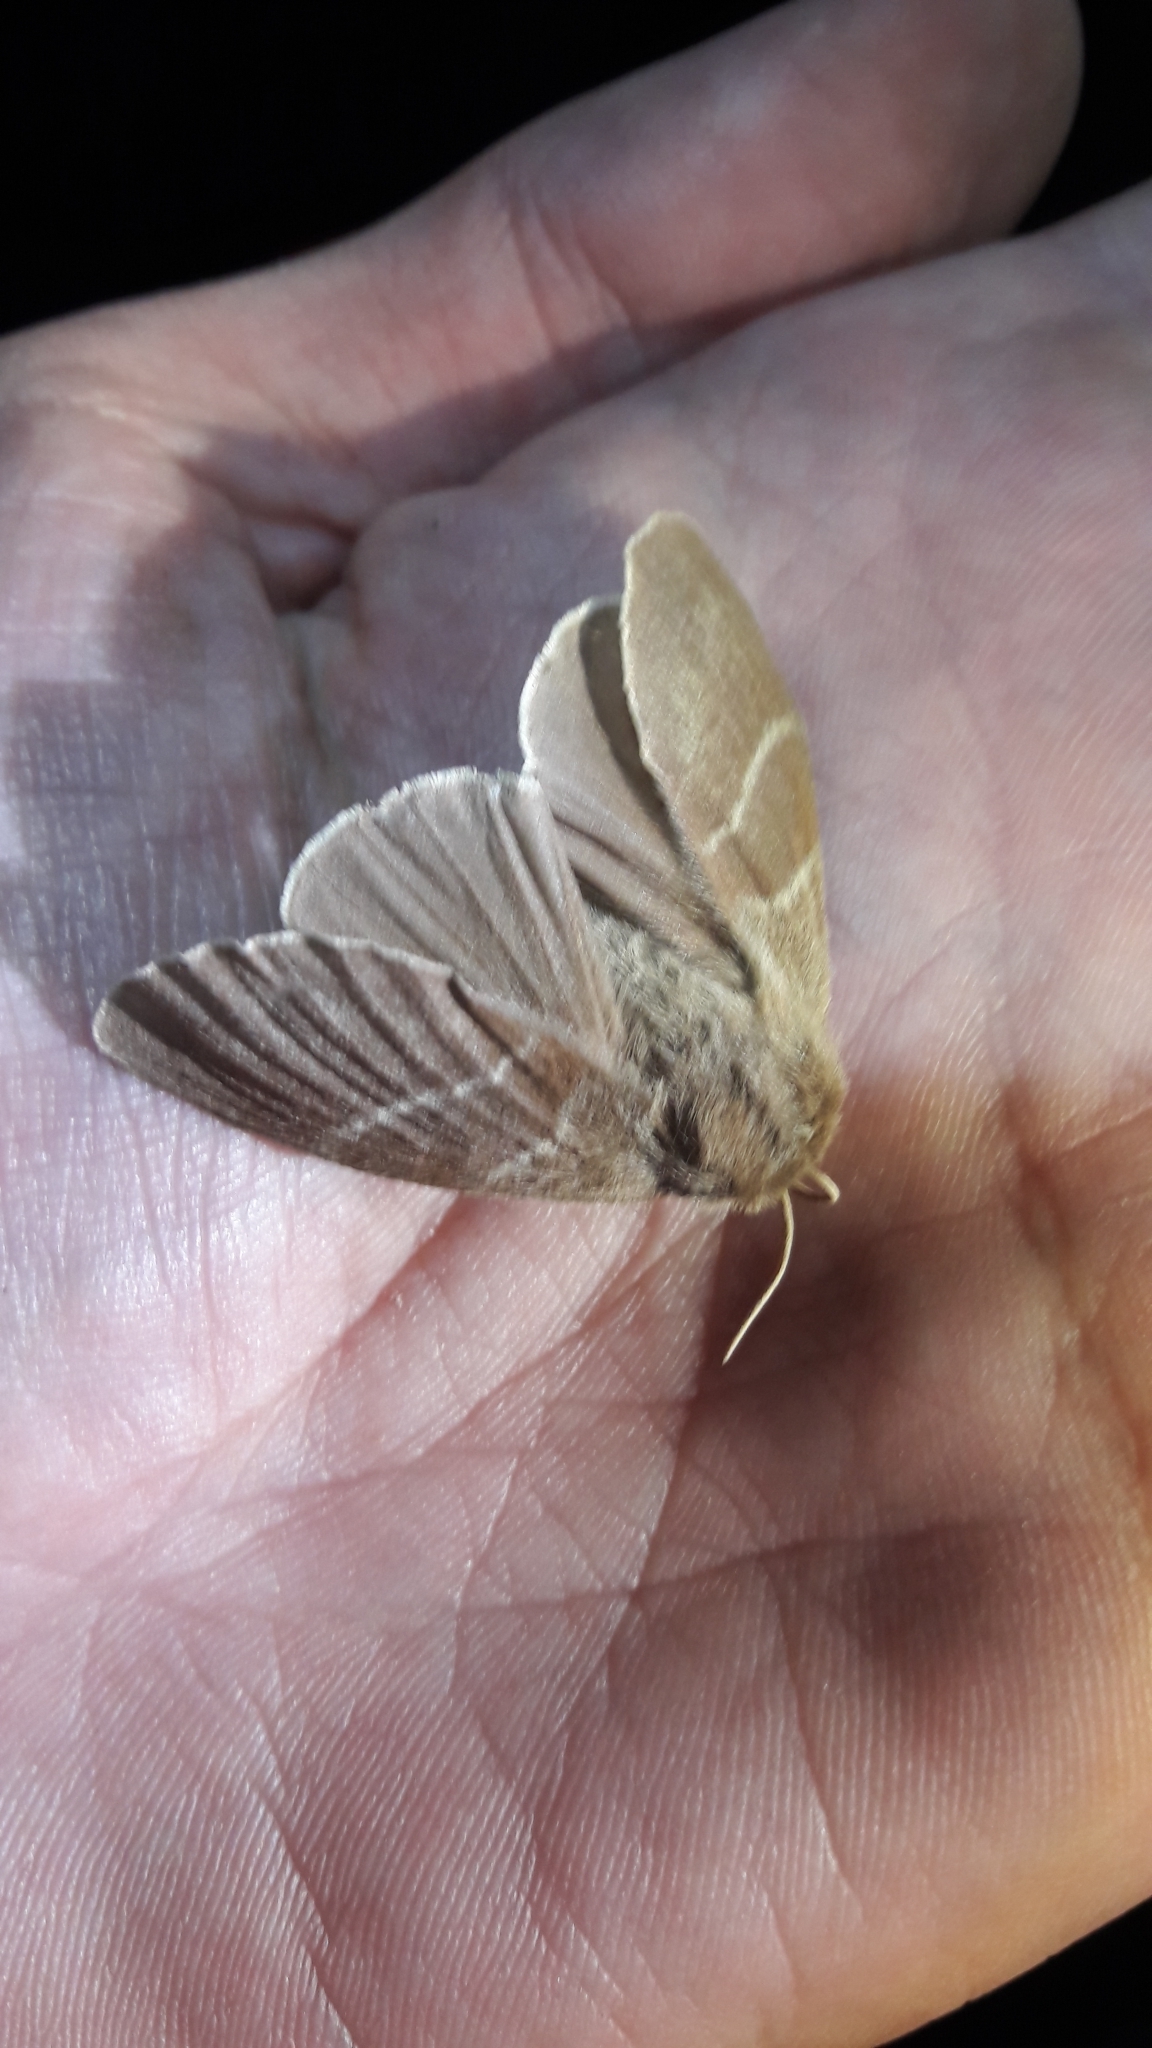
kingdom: Animalia
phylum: Arthropoda
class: Insecta
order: Lepidoptera
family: Lasiocampidae
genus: Macrothylacia
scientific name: Macrothylacia rubi
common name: Fox moth
